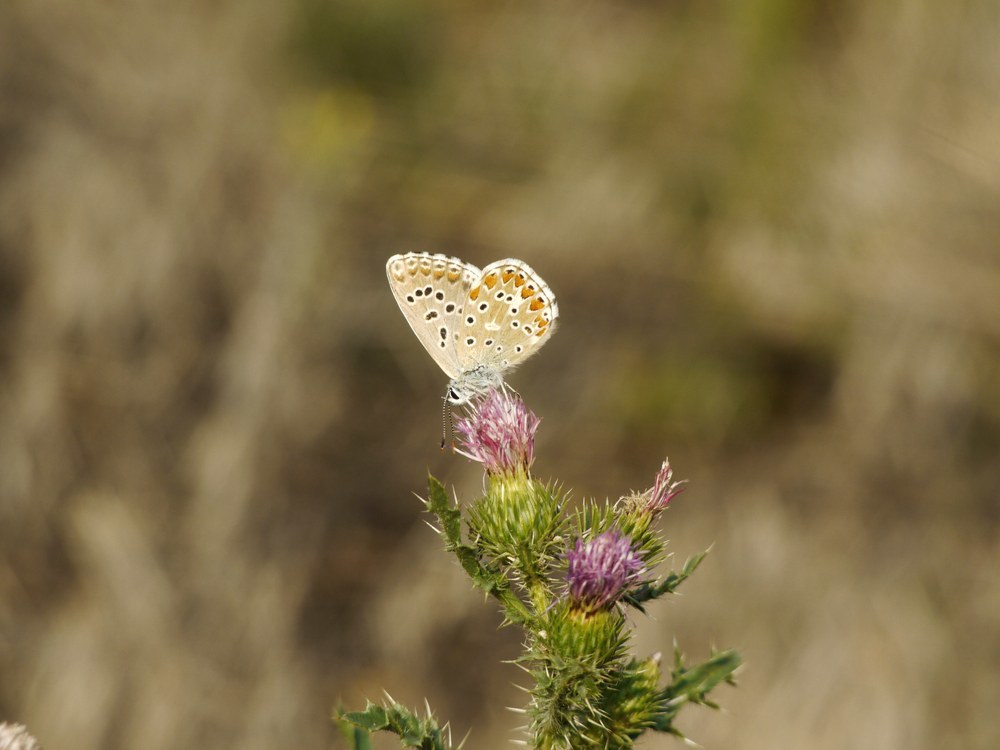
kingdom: Animalia
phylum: Arthropoda
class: Insecta
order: Lepidoptera
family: Lycaenidae
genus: Lysandra
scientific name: Lysandra bellargus
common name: Adonis blue
